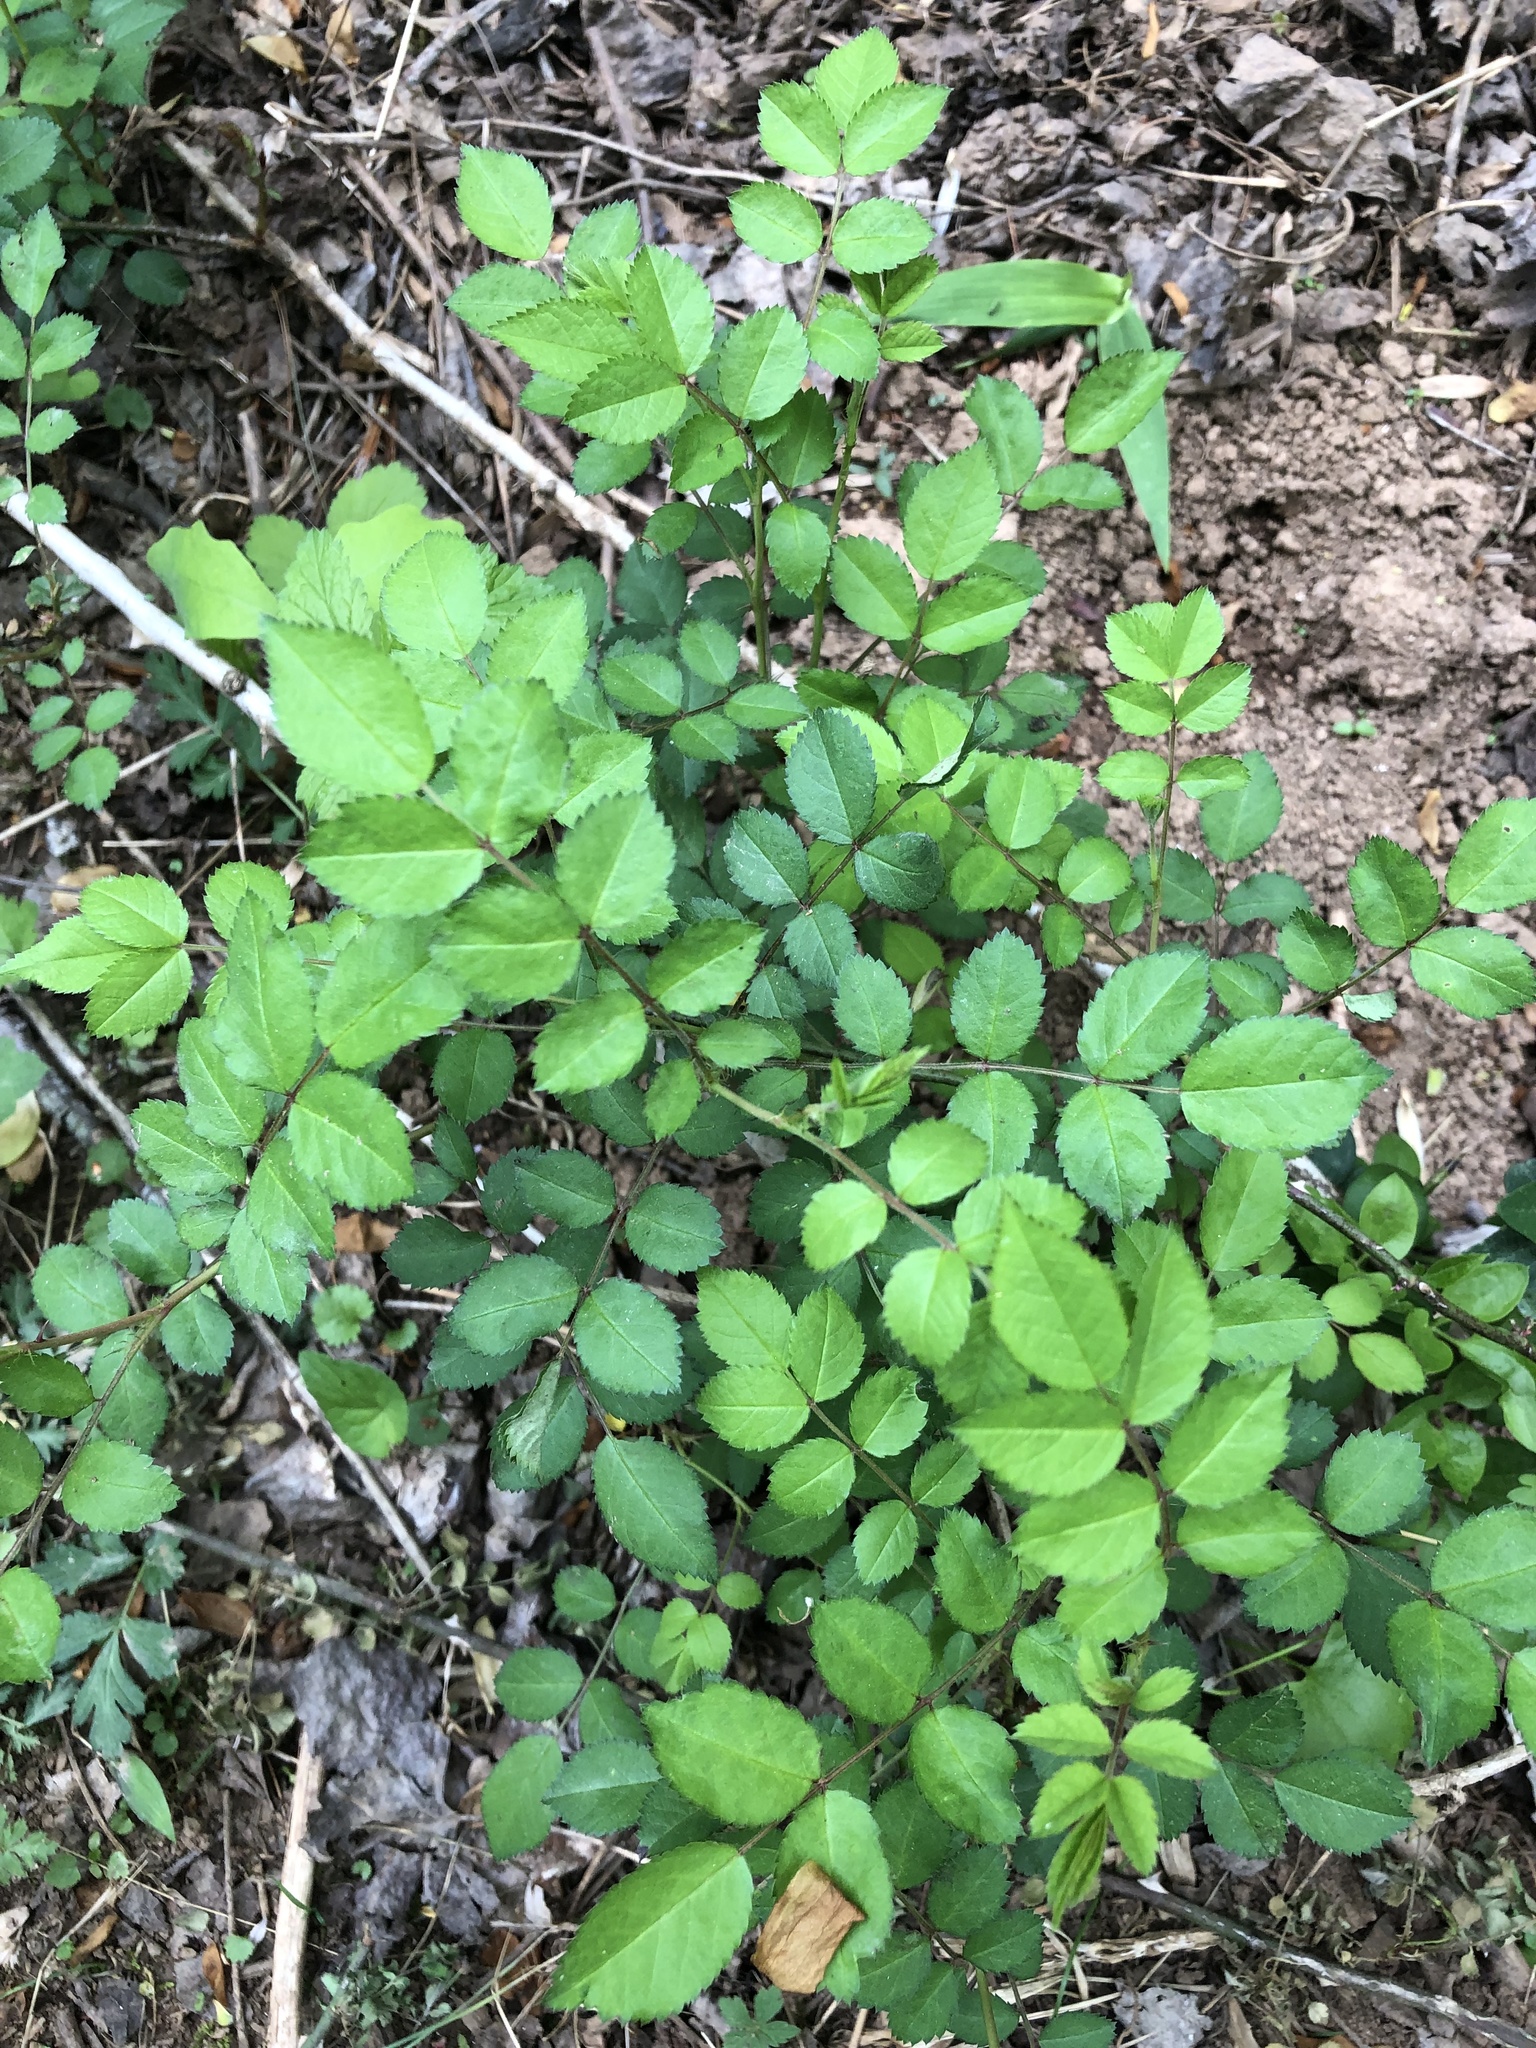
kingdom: Plantae
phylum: Tracheophyta
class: Magnoliopsida
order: Rosales
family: Rosaceae
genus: Rosa
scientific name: Rosa multiflora
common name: Multiflora rose
